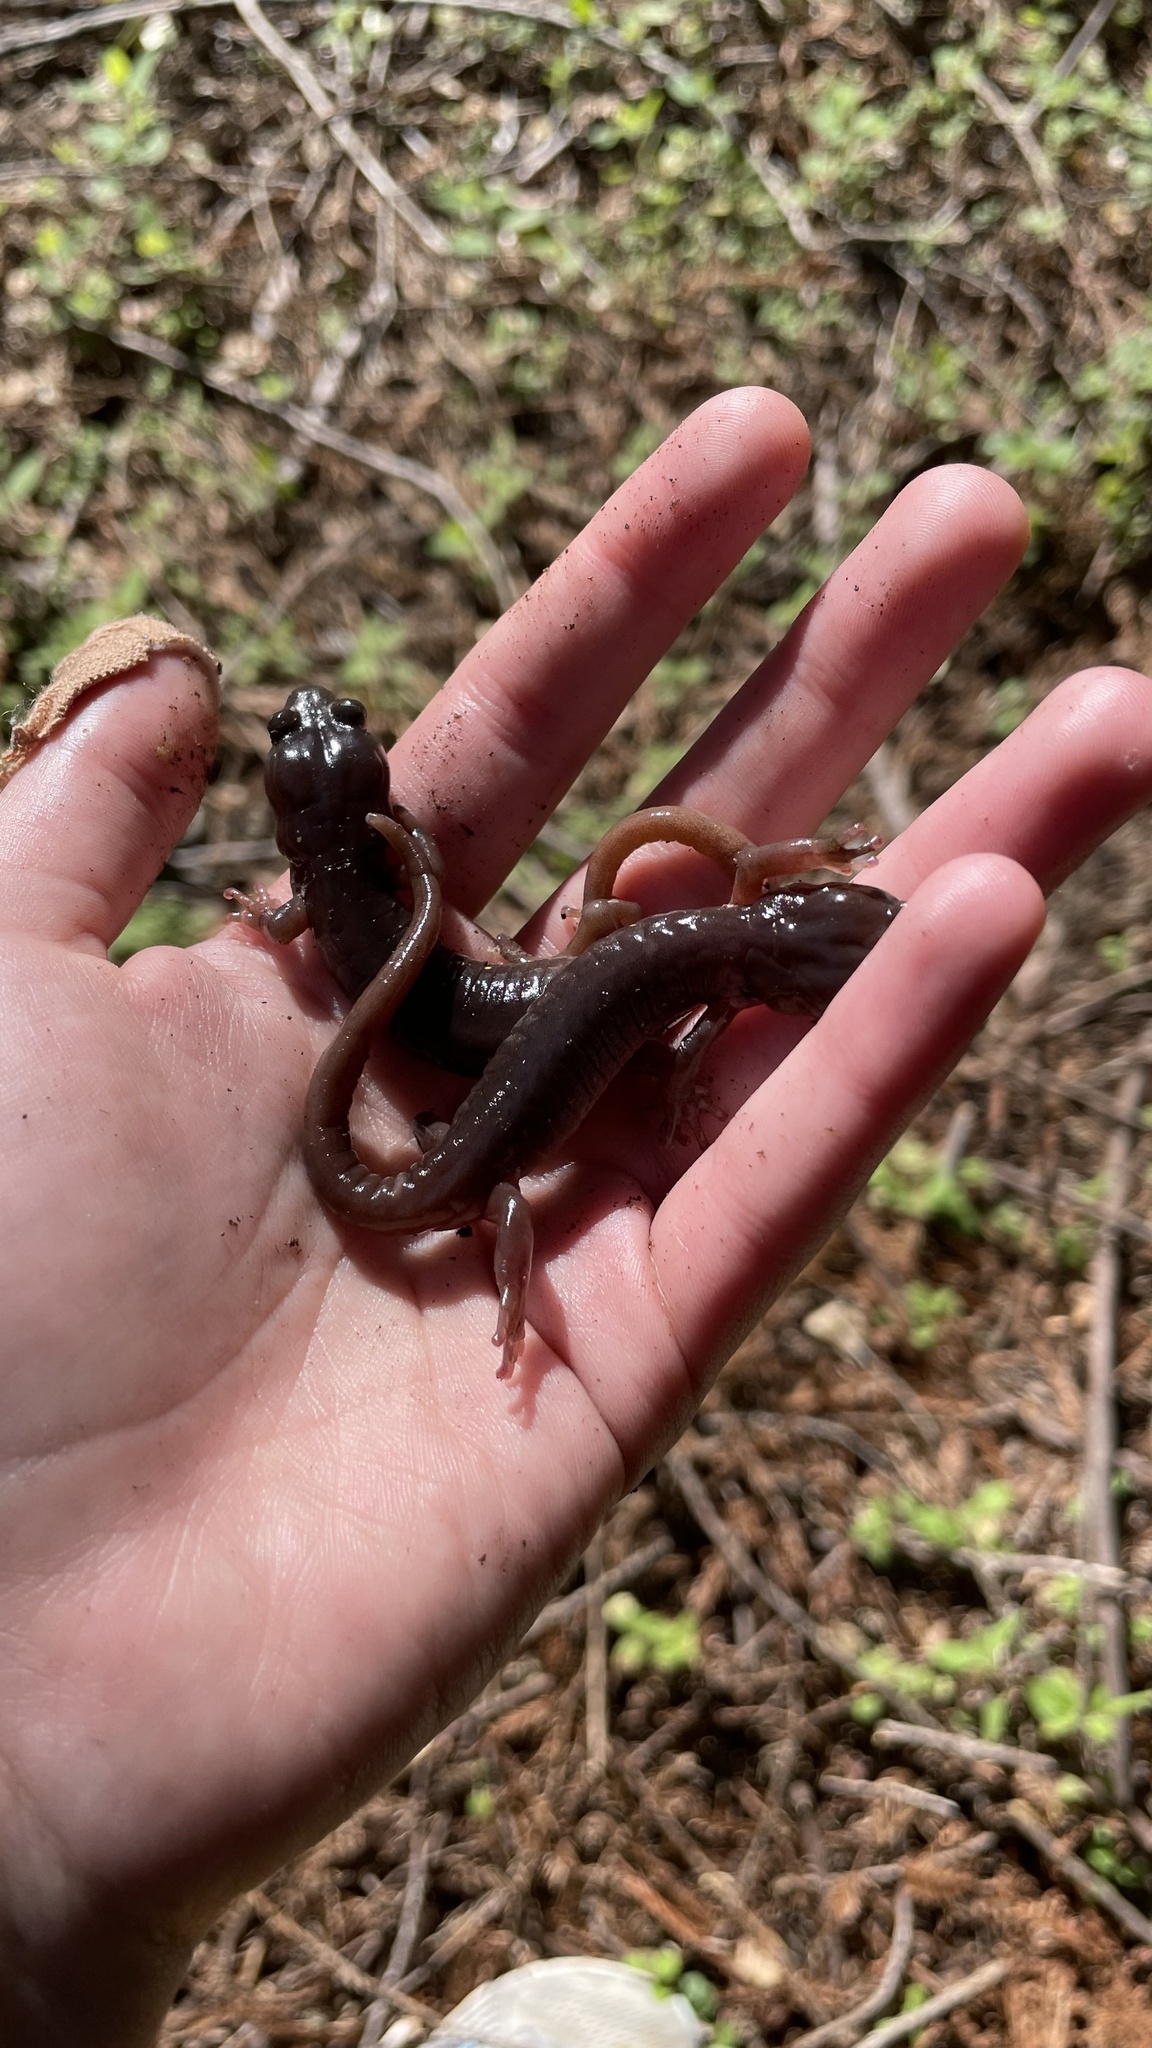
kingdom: Animalia
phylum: Chordata
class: Amphibia
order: Caudata
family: Plethodontidae
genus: Aneides
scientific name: Aneides lugubris
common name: Arboreal salamander
